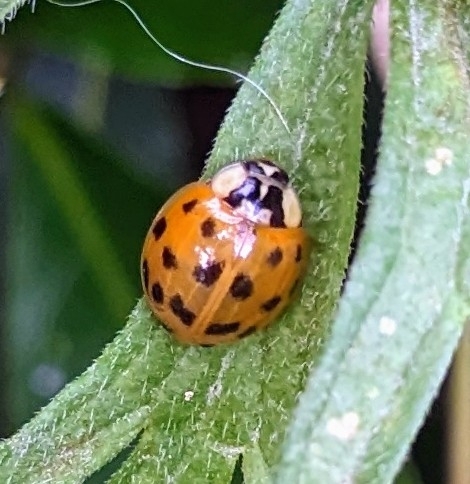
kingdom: Animalia
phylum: Arthropoda
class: Insecta
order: Coleoptera
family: Coccinellidae
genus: Harmonia
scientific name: Harmonia axyridis
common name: Harlequin ladybird
